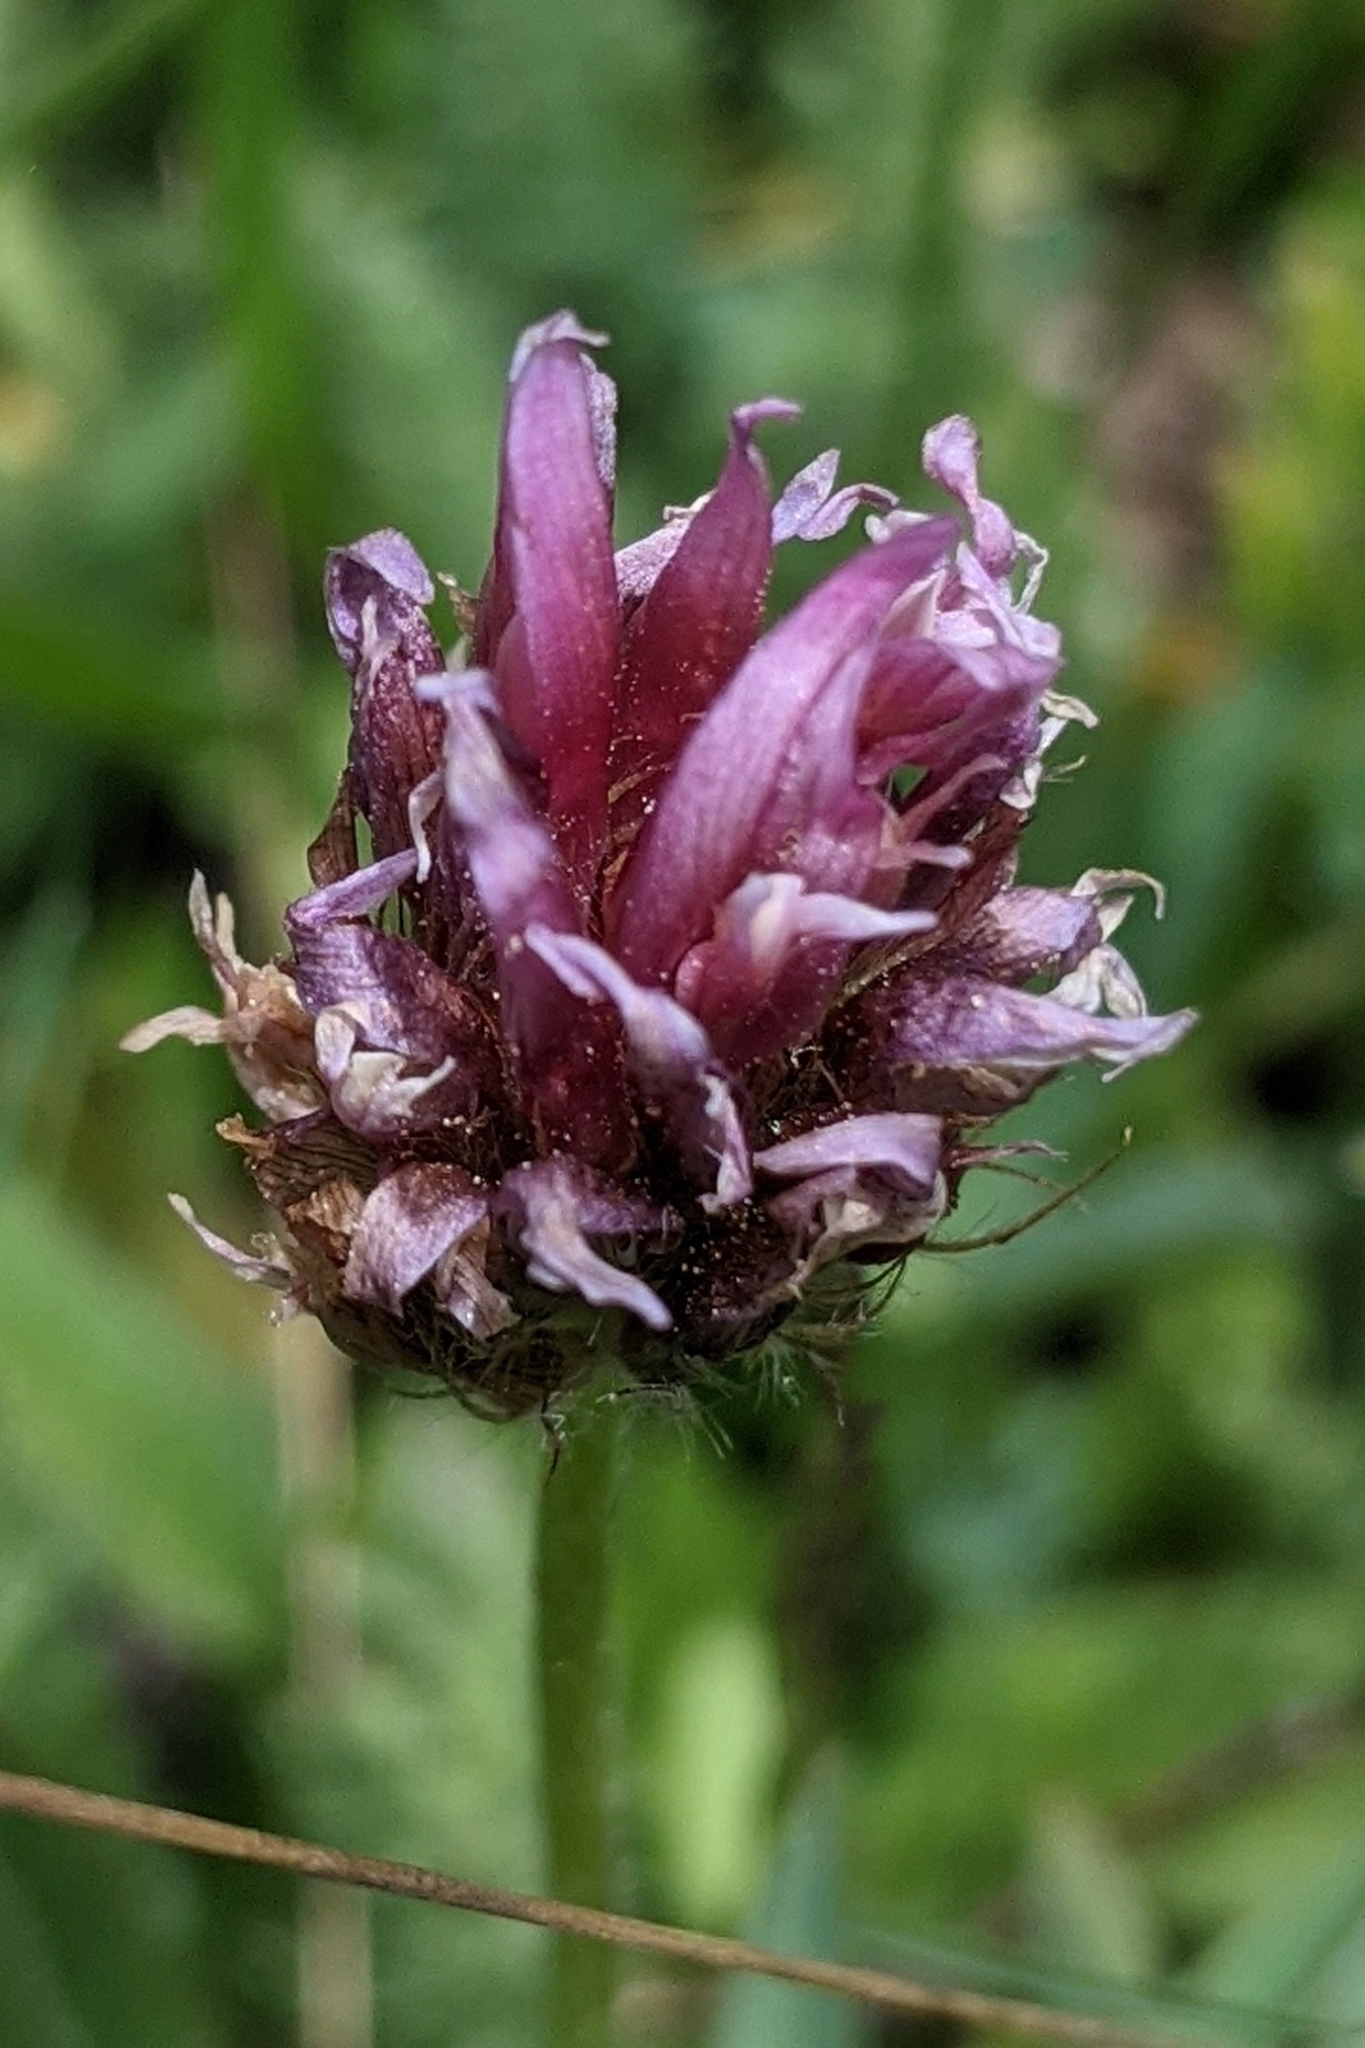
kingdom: Plantae
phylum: Tracheophyta
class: Magnoliopsida
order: Fabales
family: Fabaceae
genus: Trifolium
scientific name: Trifolium longipes
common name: Long-stalk clover
